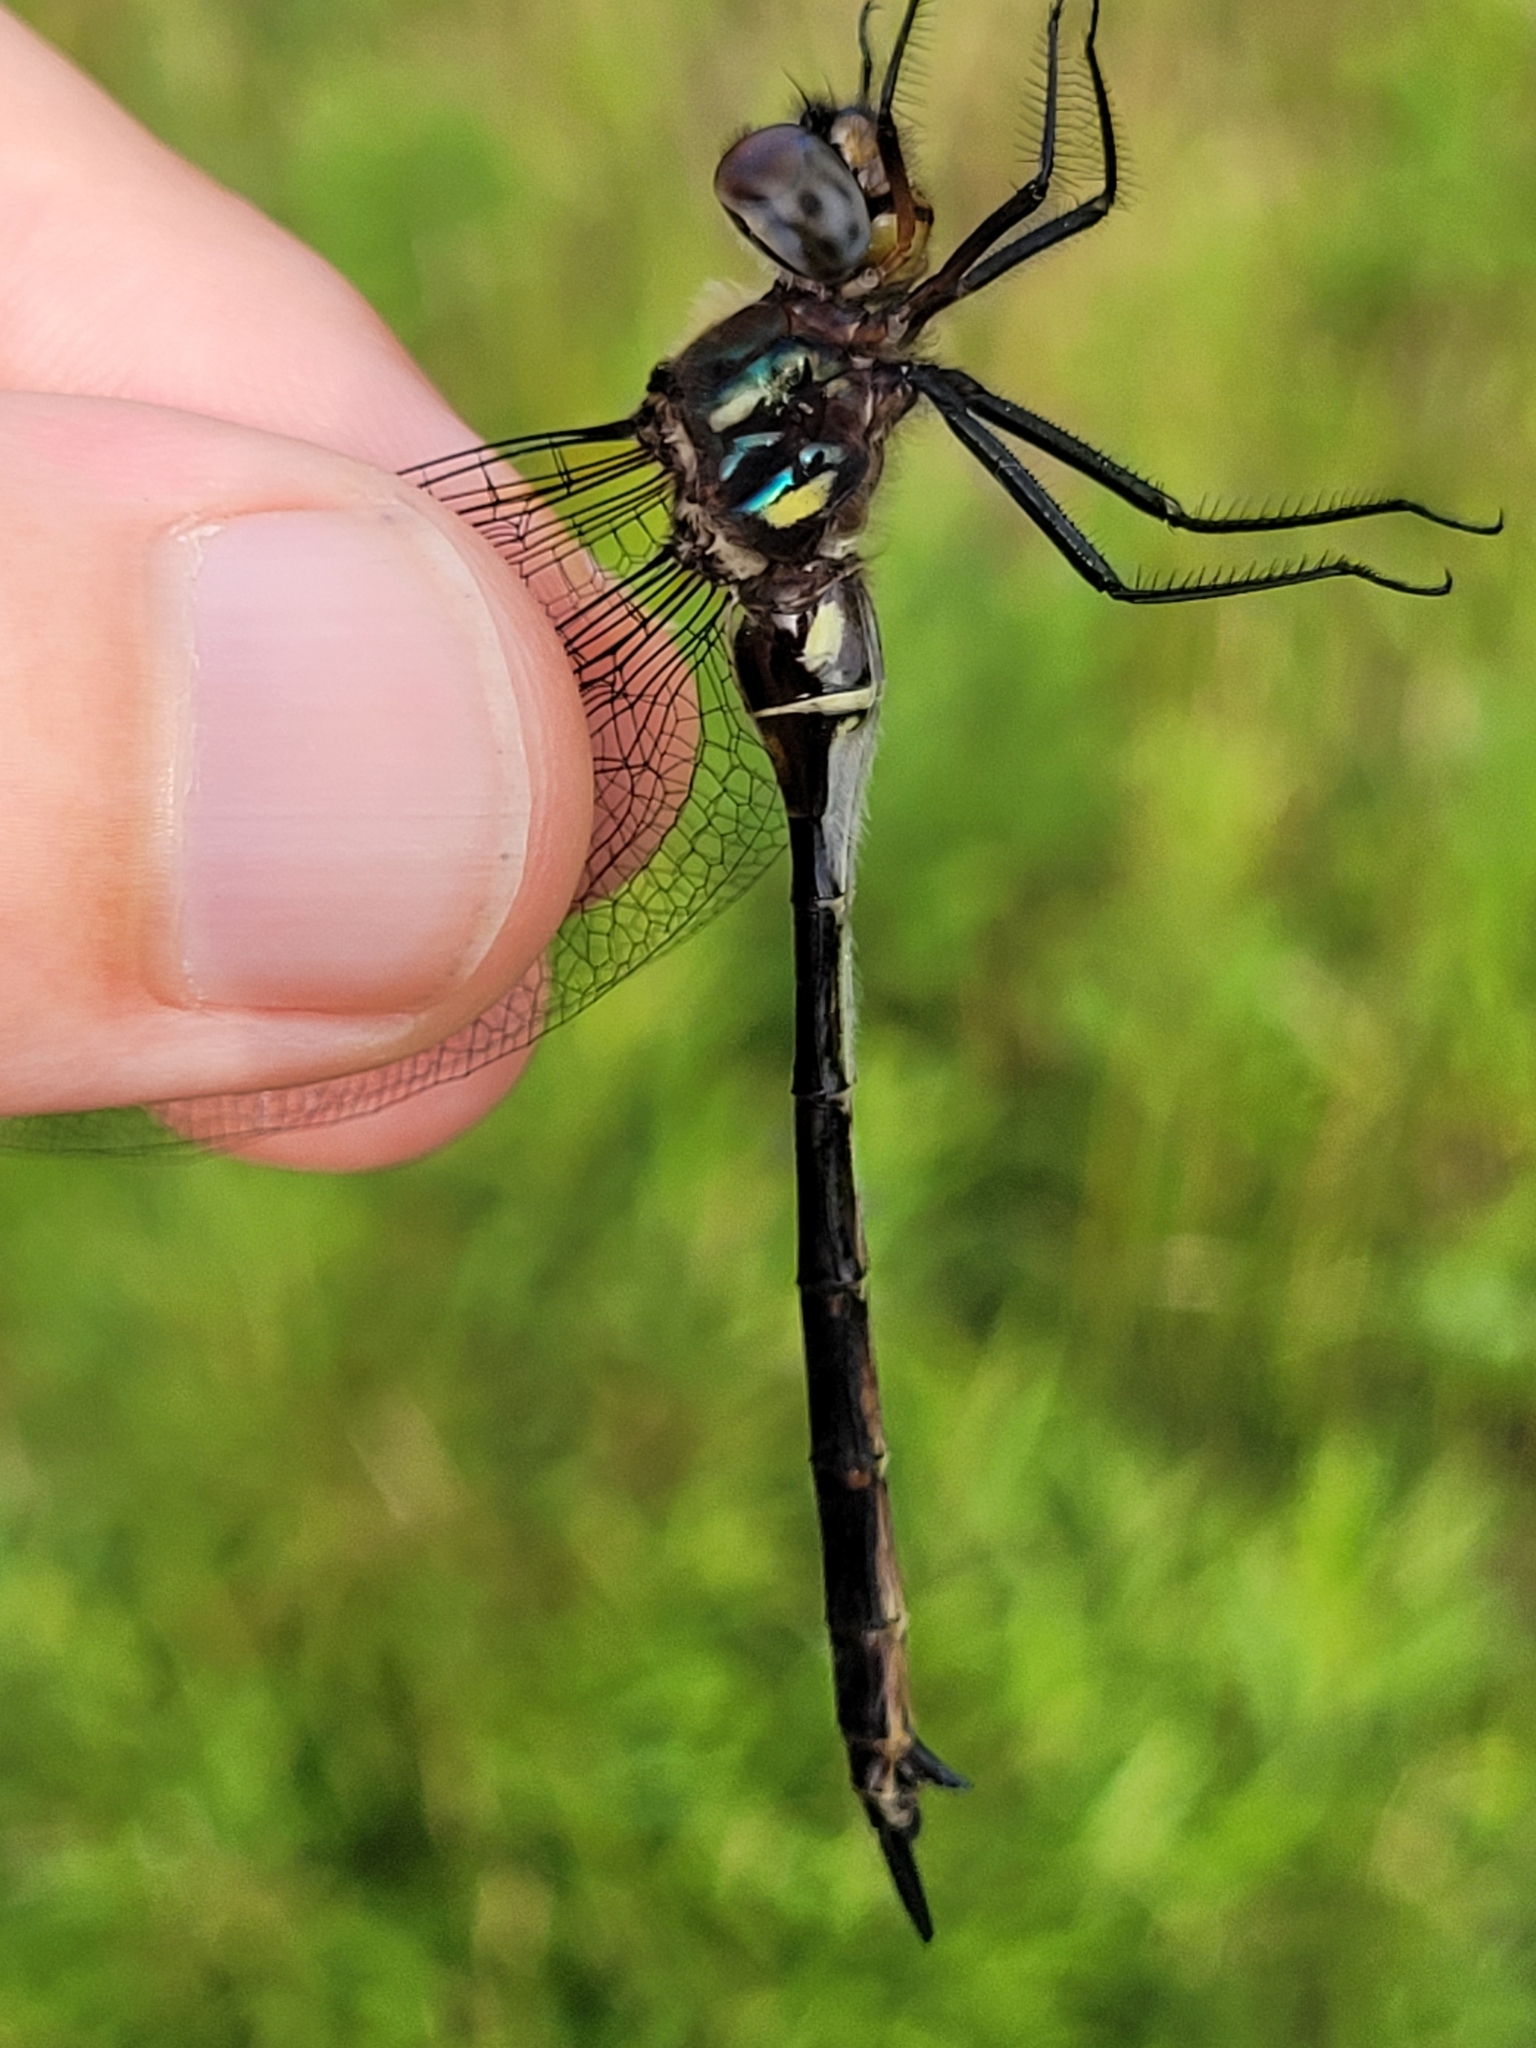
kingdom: Animalia
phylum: Arthropoda
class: Insecta
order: Odonata
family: Corduliidae
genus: Somatochlora
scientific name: Somatochlora tenebrosa
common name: Clamp-tipped emerald
